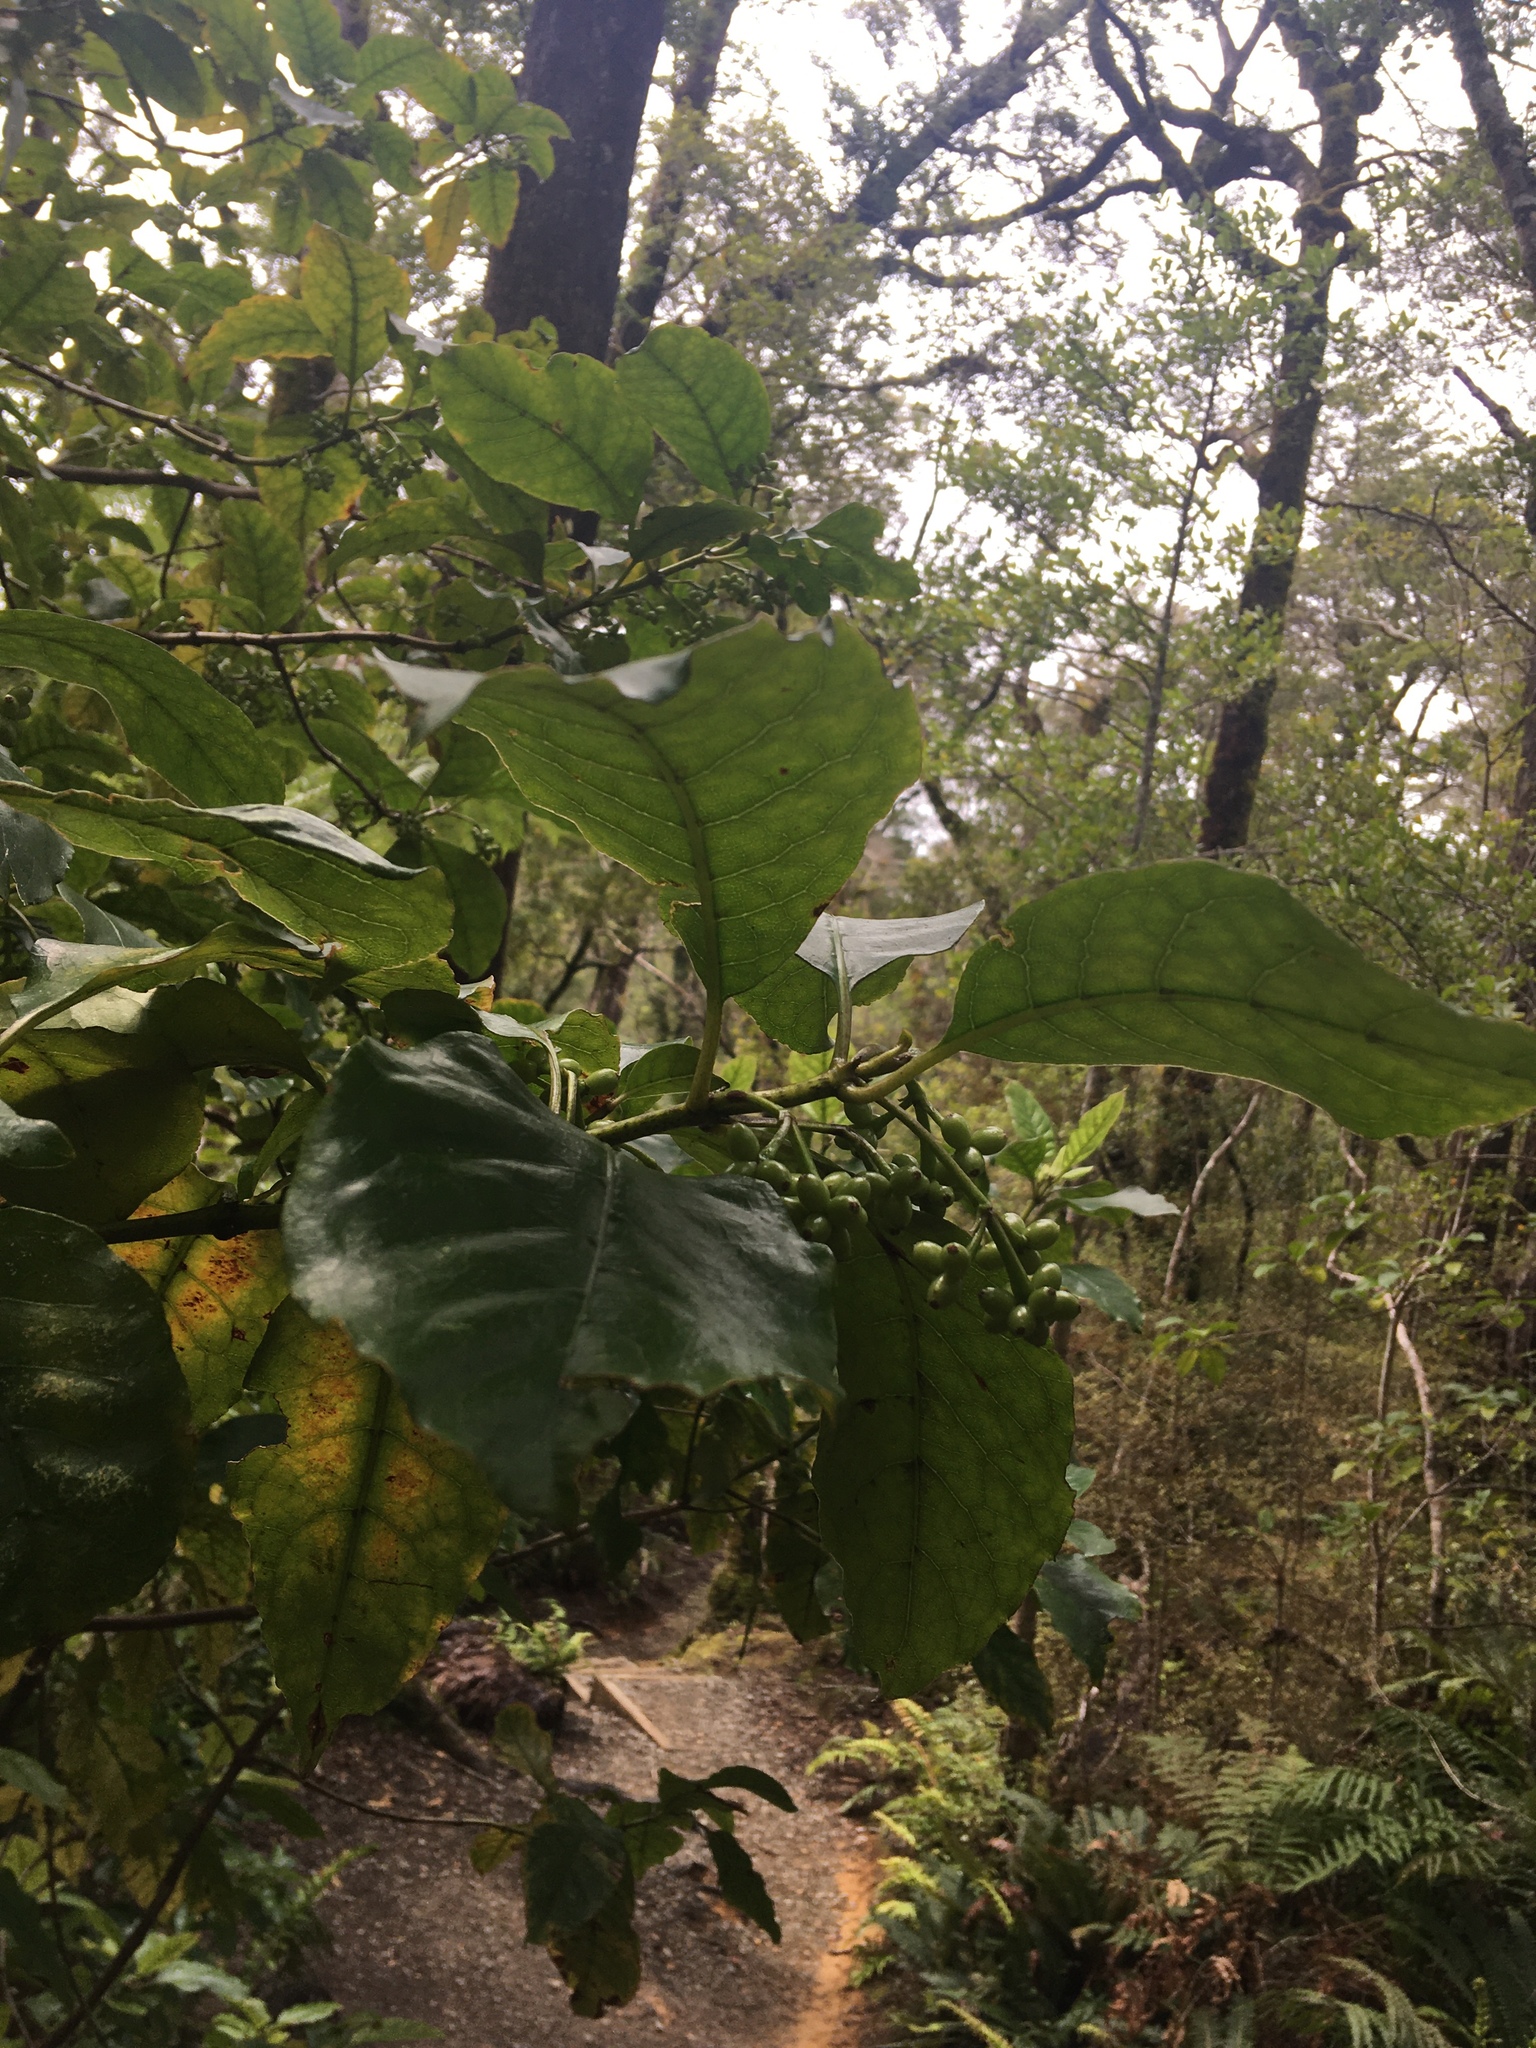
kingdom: Plantae
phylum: Tracheophyta
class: Magnoliopsida
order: Gentianales
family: Rubiaceae
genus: Coprosma
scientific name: Coprosma autumnalis
